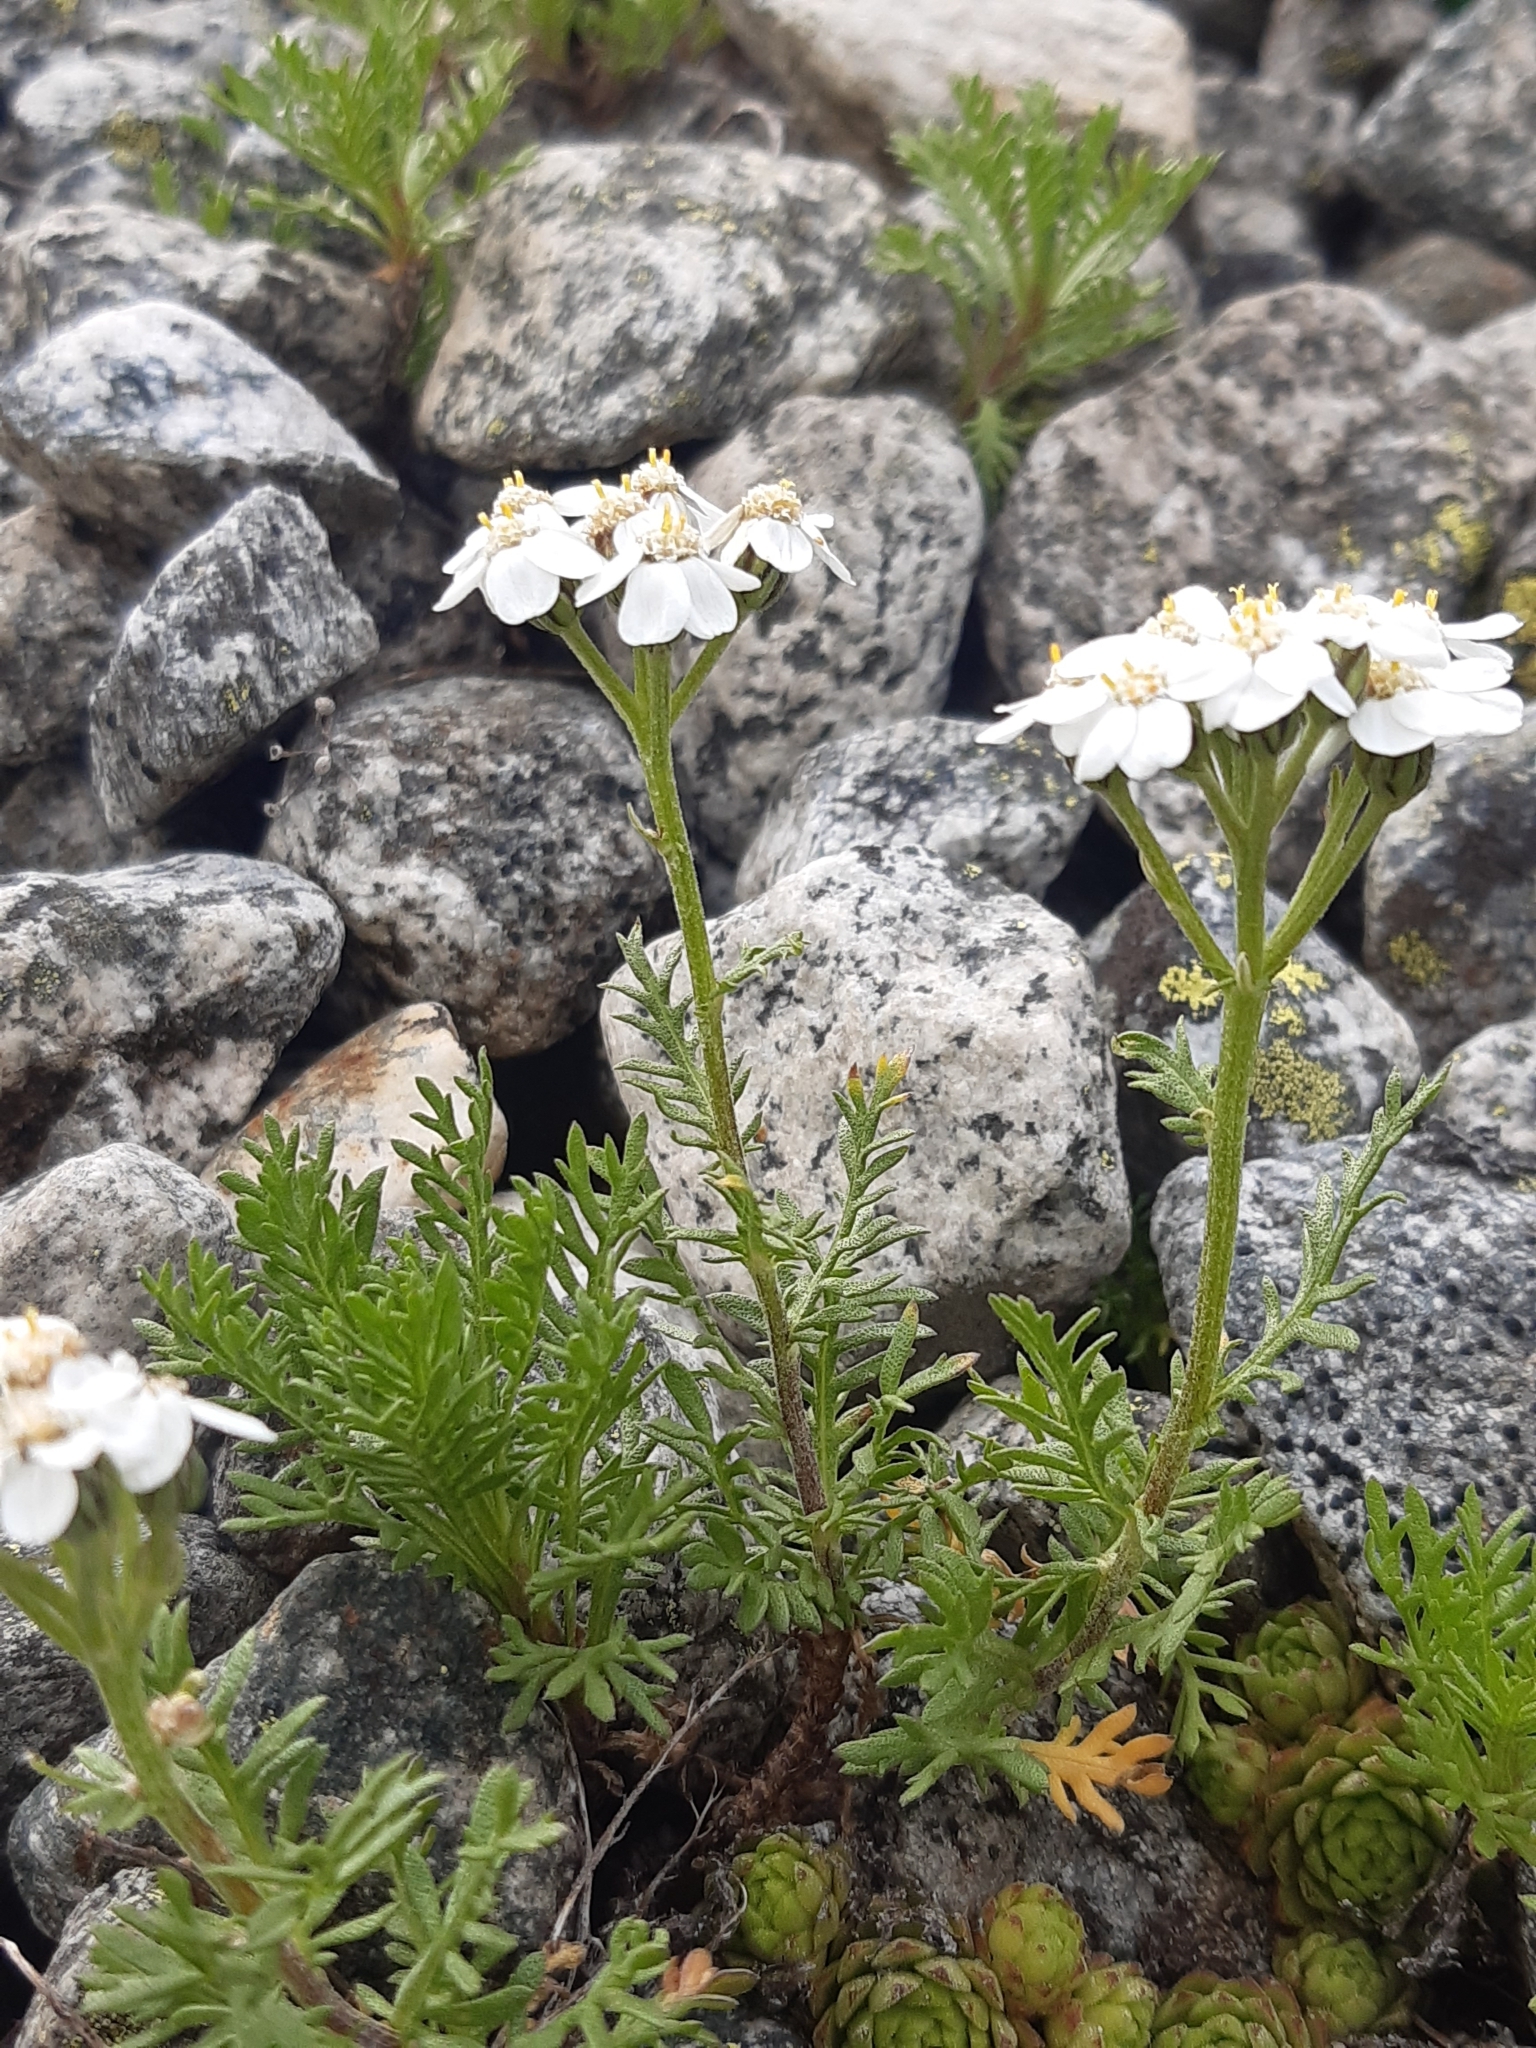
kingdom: Plantae
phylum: Tracheophyta
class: Magnoliopsida
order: Asterales
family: Asteraceae
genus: Achillea
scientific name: Achillea erba-rotta
